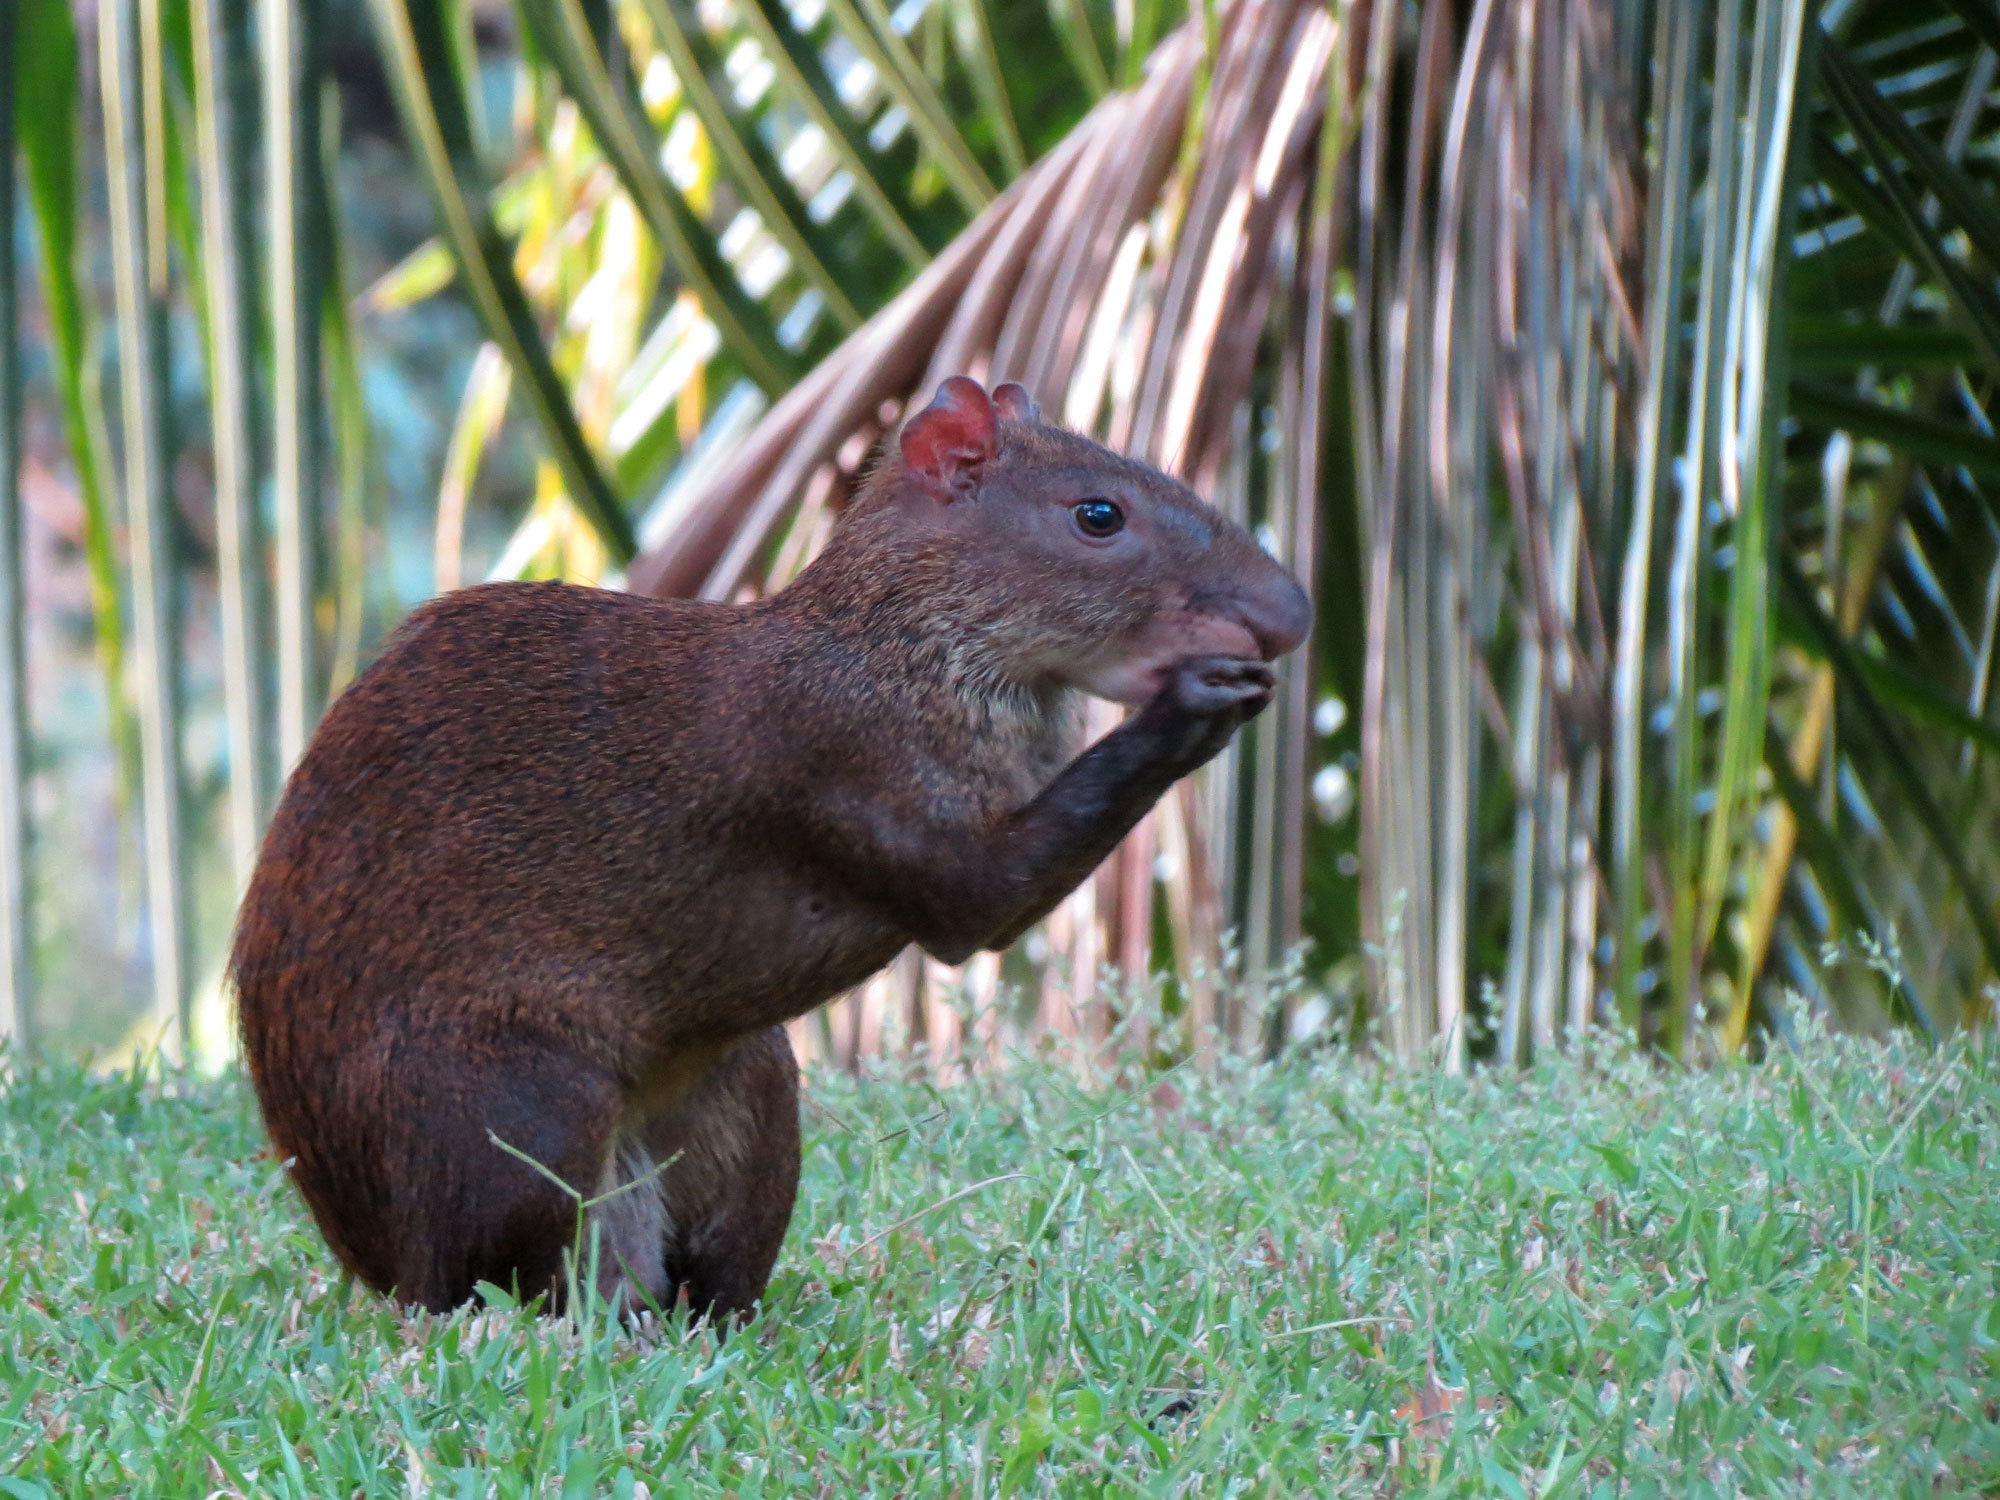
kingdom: Animalia
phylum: Chordata
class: Mammalia
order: Rodentia
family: Dasyproctidae
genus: Dasyprocta
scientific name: Dasyprocta punctata
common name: Central american agouti
